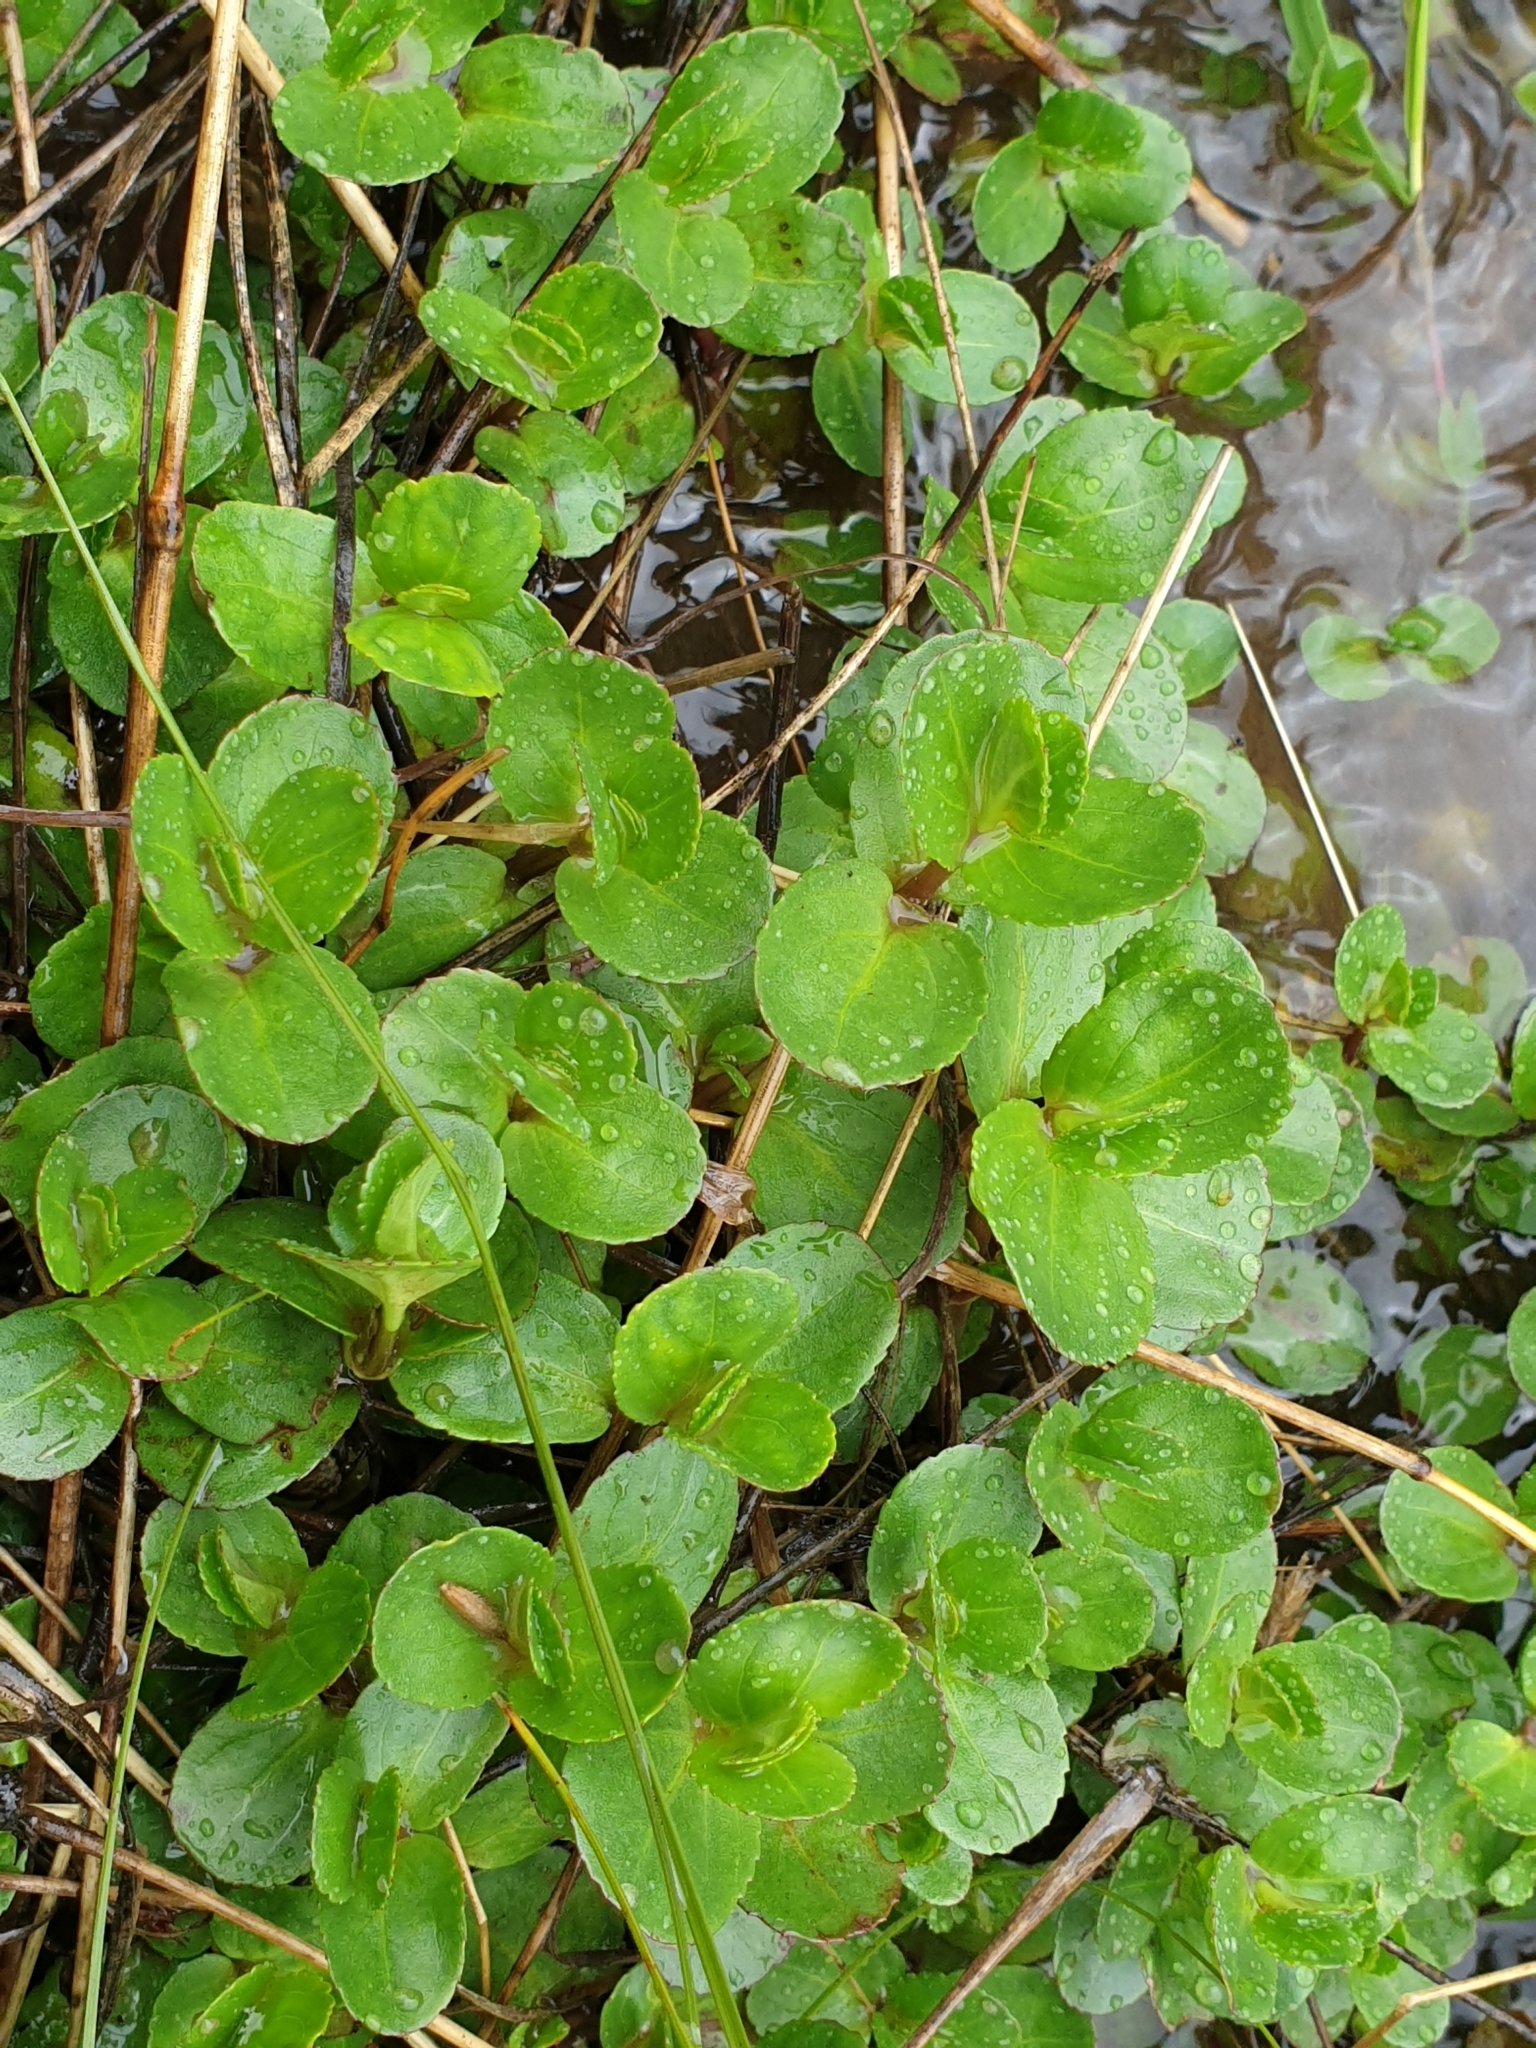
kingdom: Plantae
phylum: Tracheophyta
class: Magnoliopsida
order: Lamiales
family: Plantaginaceae
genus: Veronica
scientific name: Veronica beccabunga
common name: Brooklime
